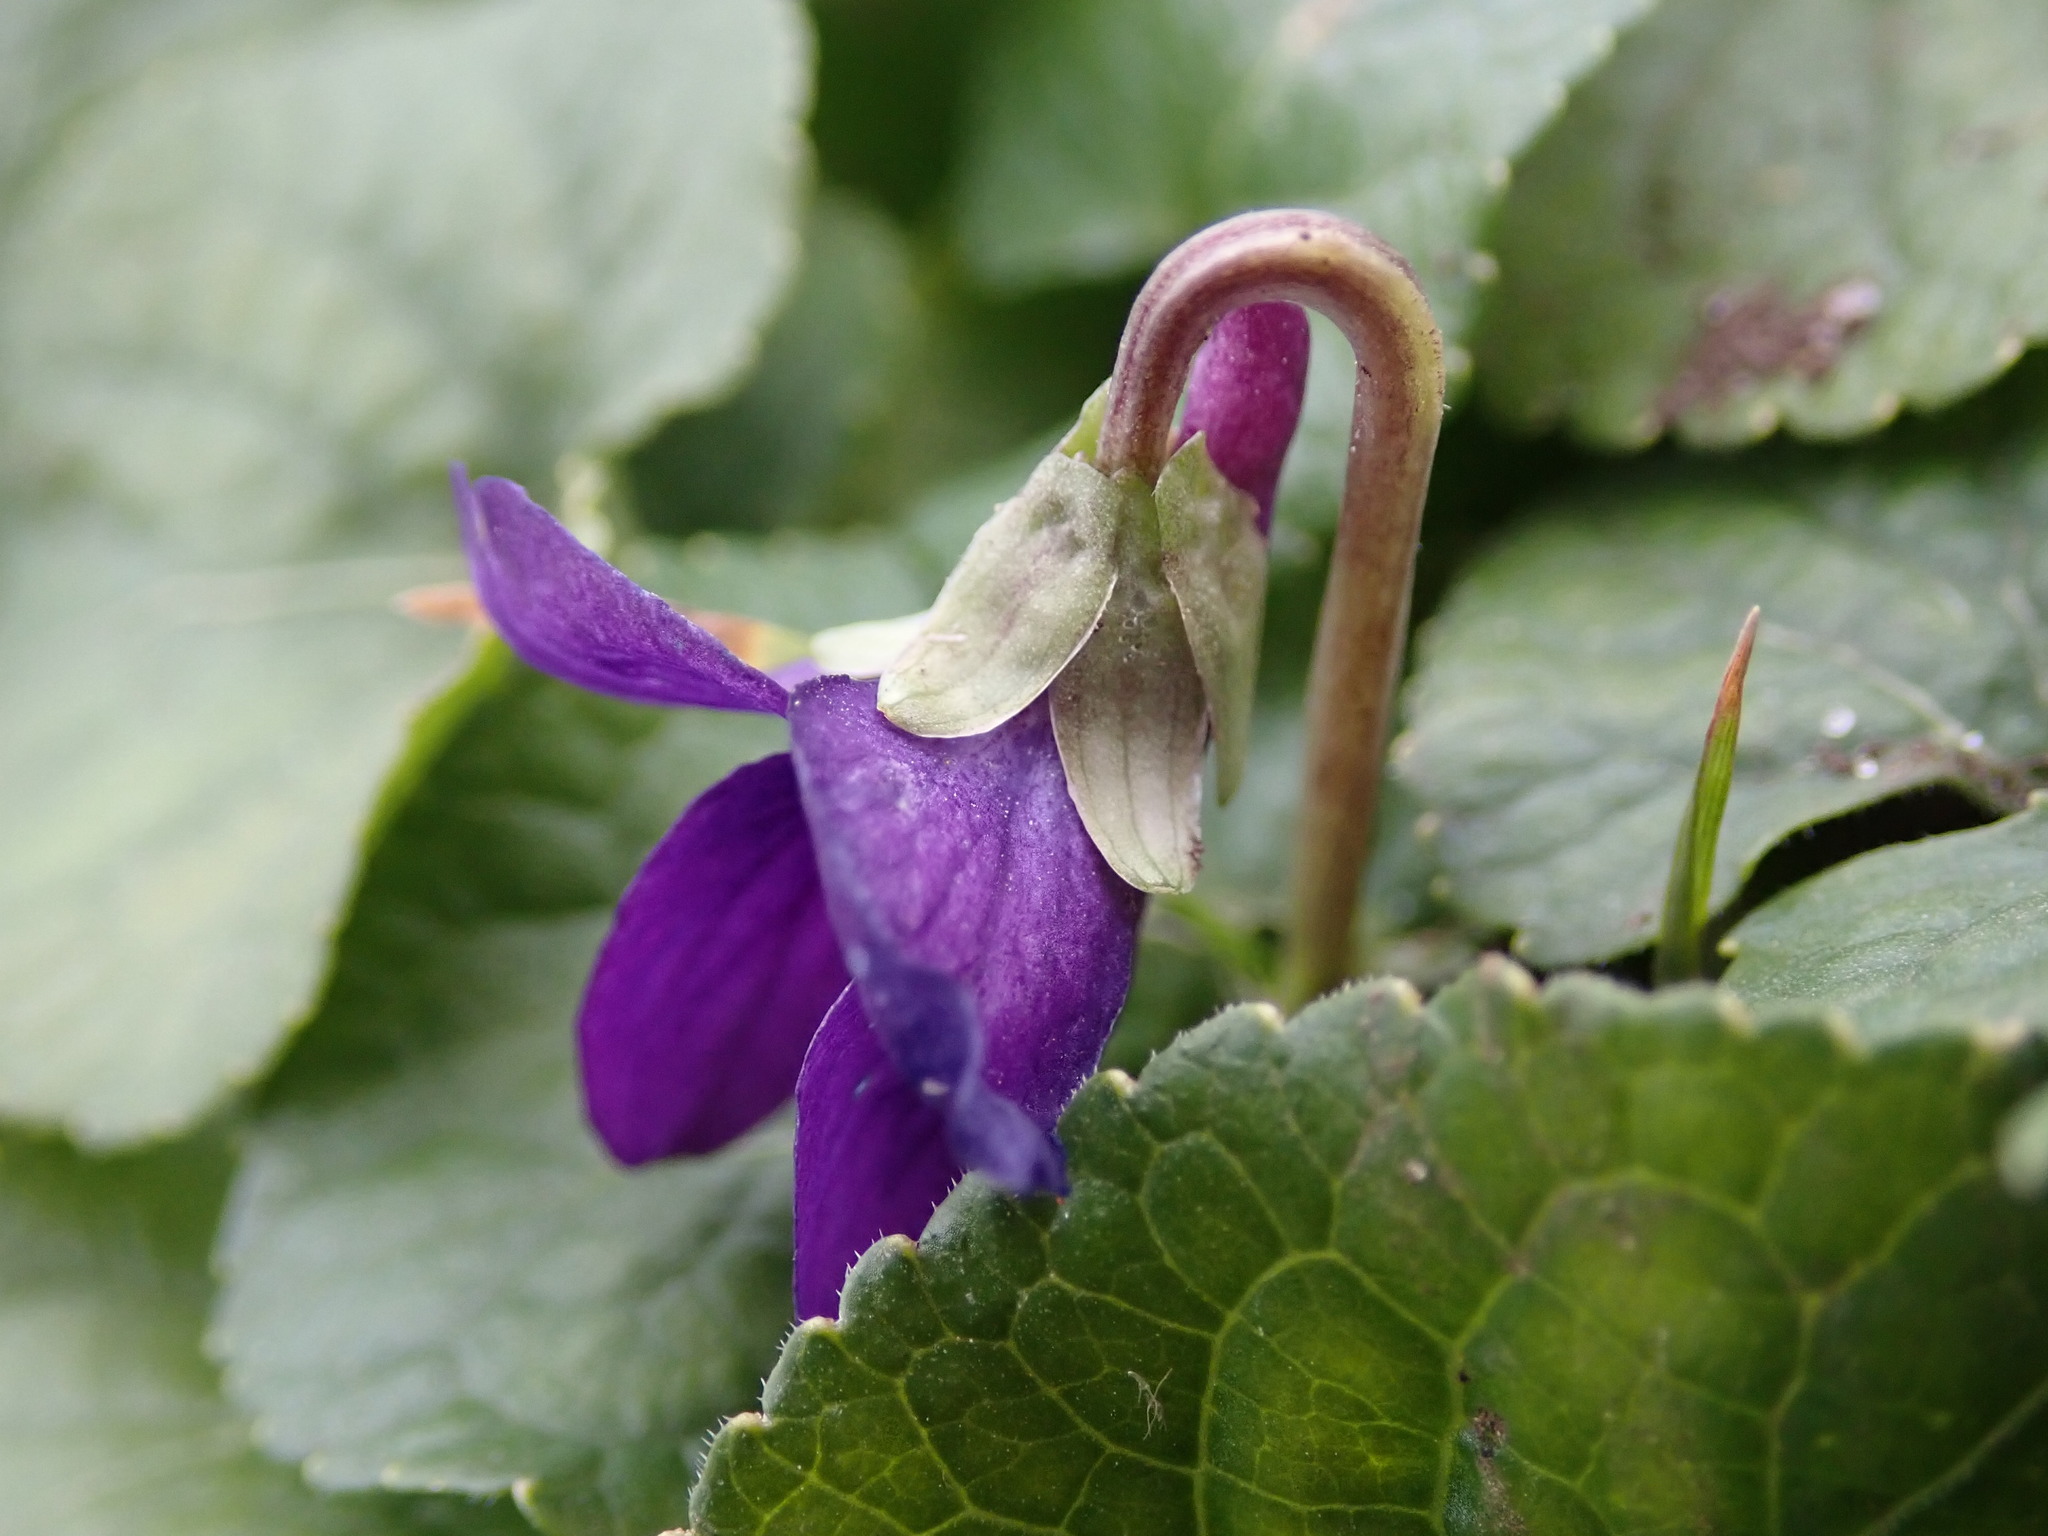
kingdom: Plantae
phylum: Tracheophyta
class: Magnoliopsida
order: Malpighiales
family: Violaceae
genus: Viola
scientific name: Viola odorata
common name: Sweet violet
